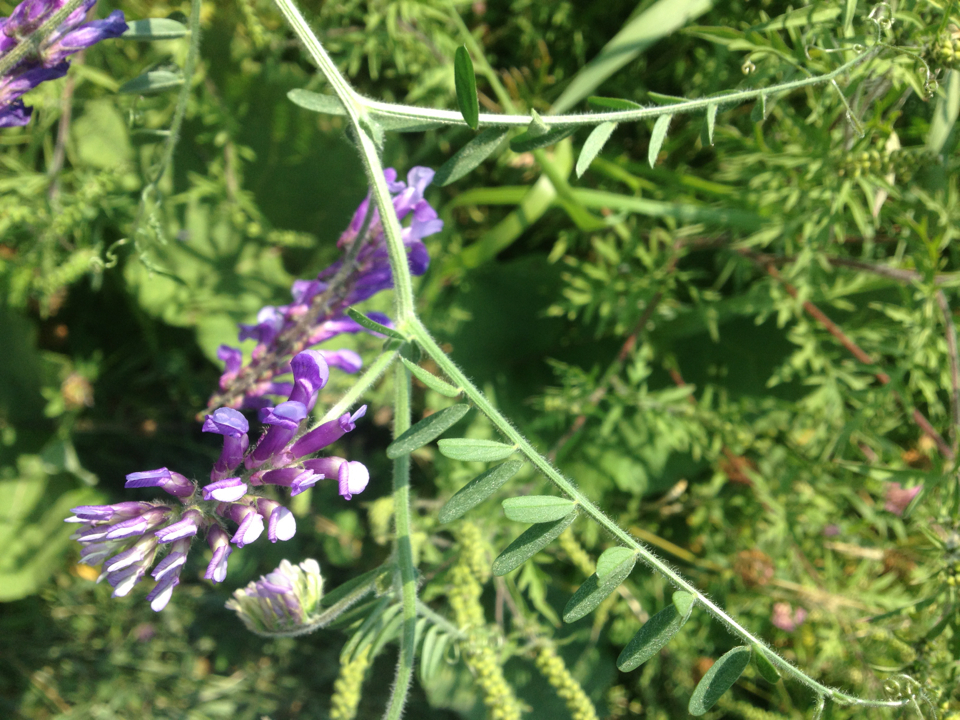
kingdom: Plantae
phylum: Tracheophyta
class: Magnoliopsida
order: Fabales
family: Fabaceae
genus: Vicia
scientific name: Vicia villosa
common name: Fodder vetch
